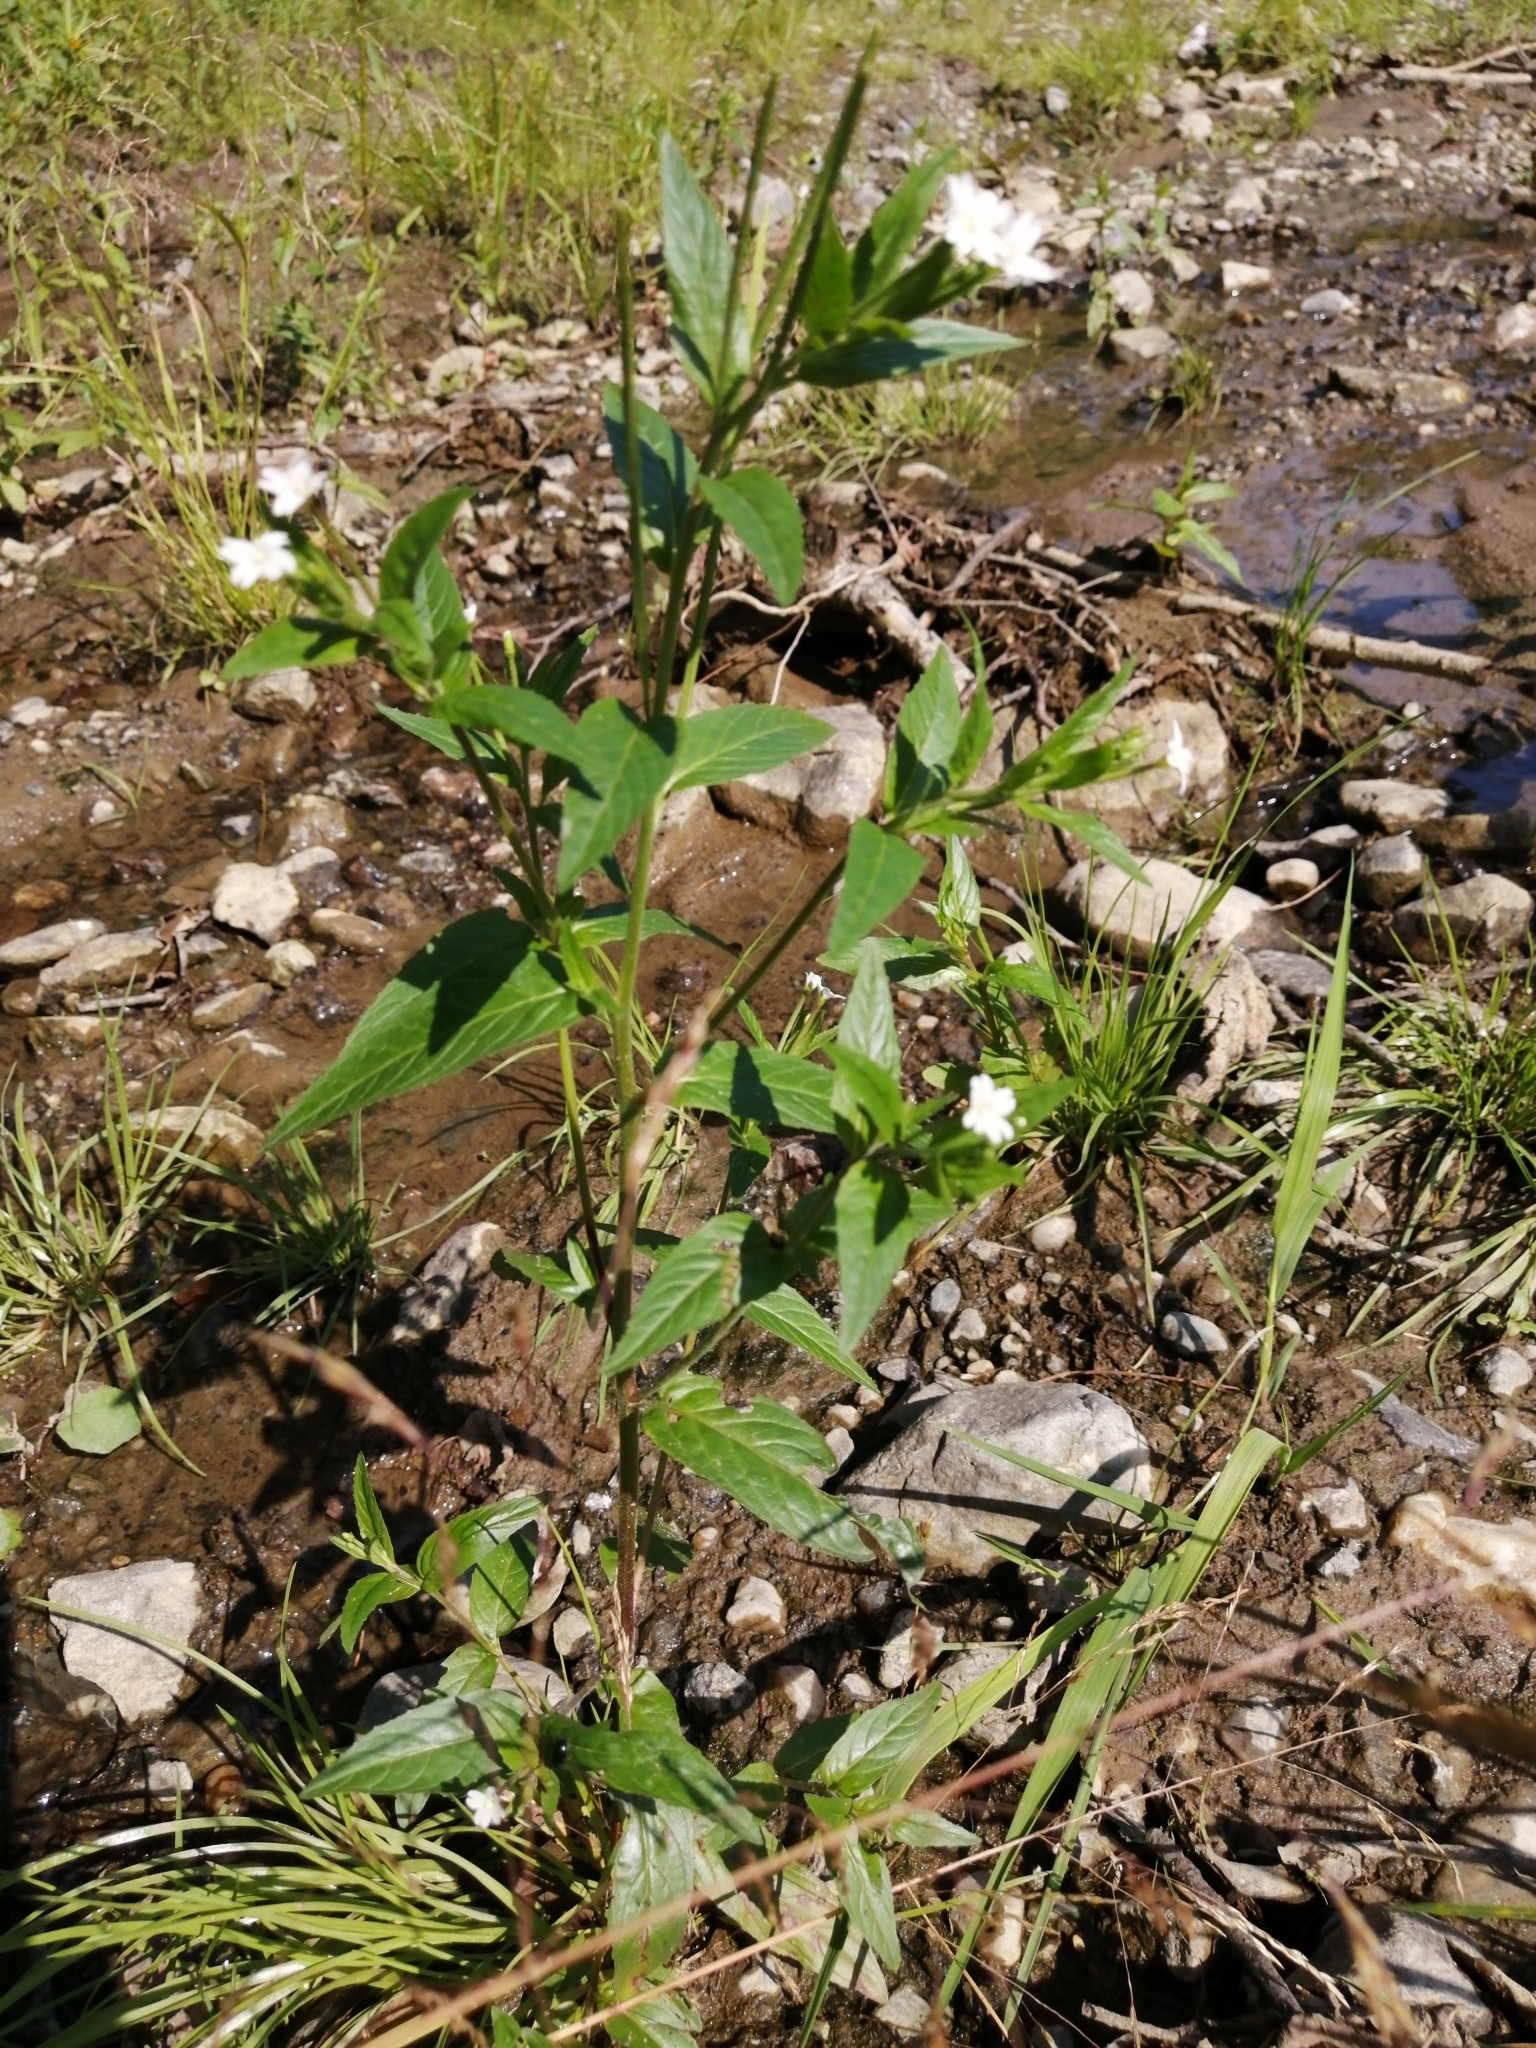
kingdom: Plantae
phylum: Tracheophyta
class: Magnoliopsida
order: Myrtales
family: Onagraceae
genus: Epilobium
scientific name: Epilobium pseudorubescens
